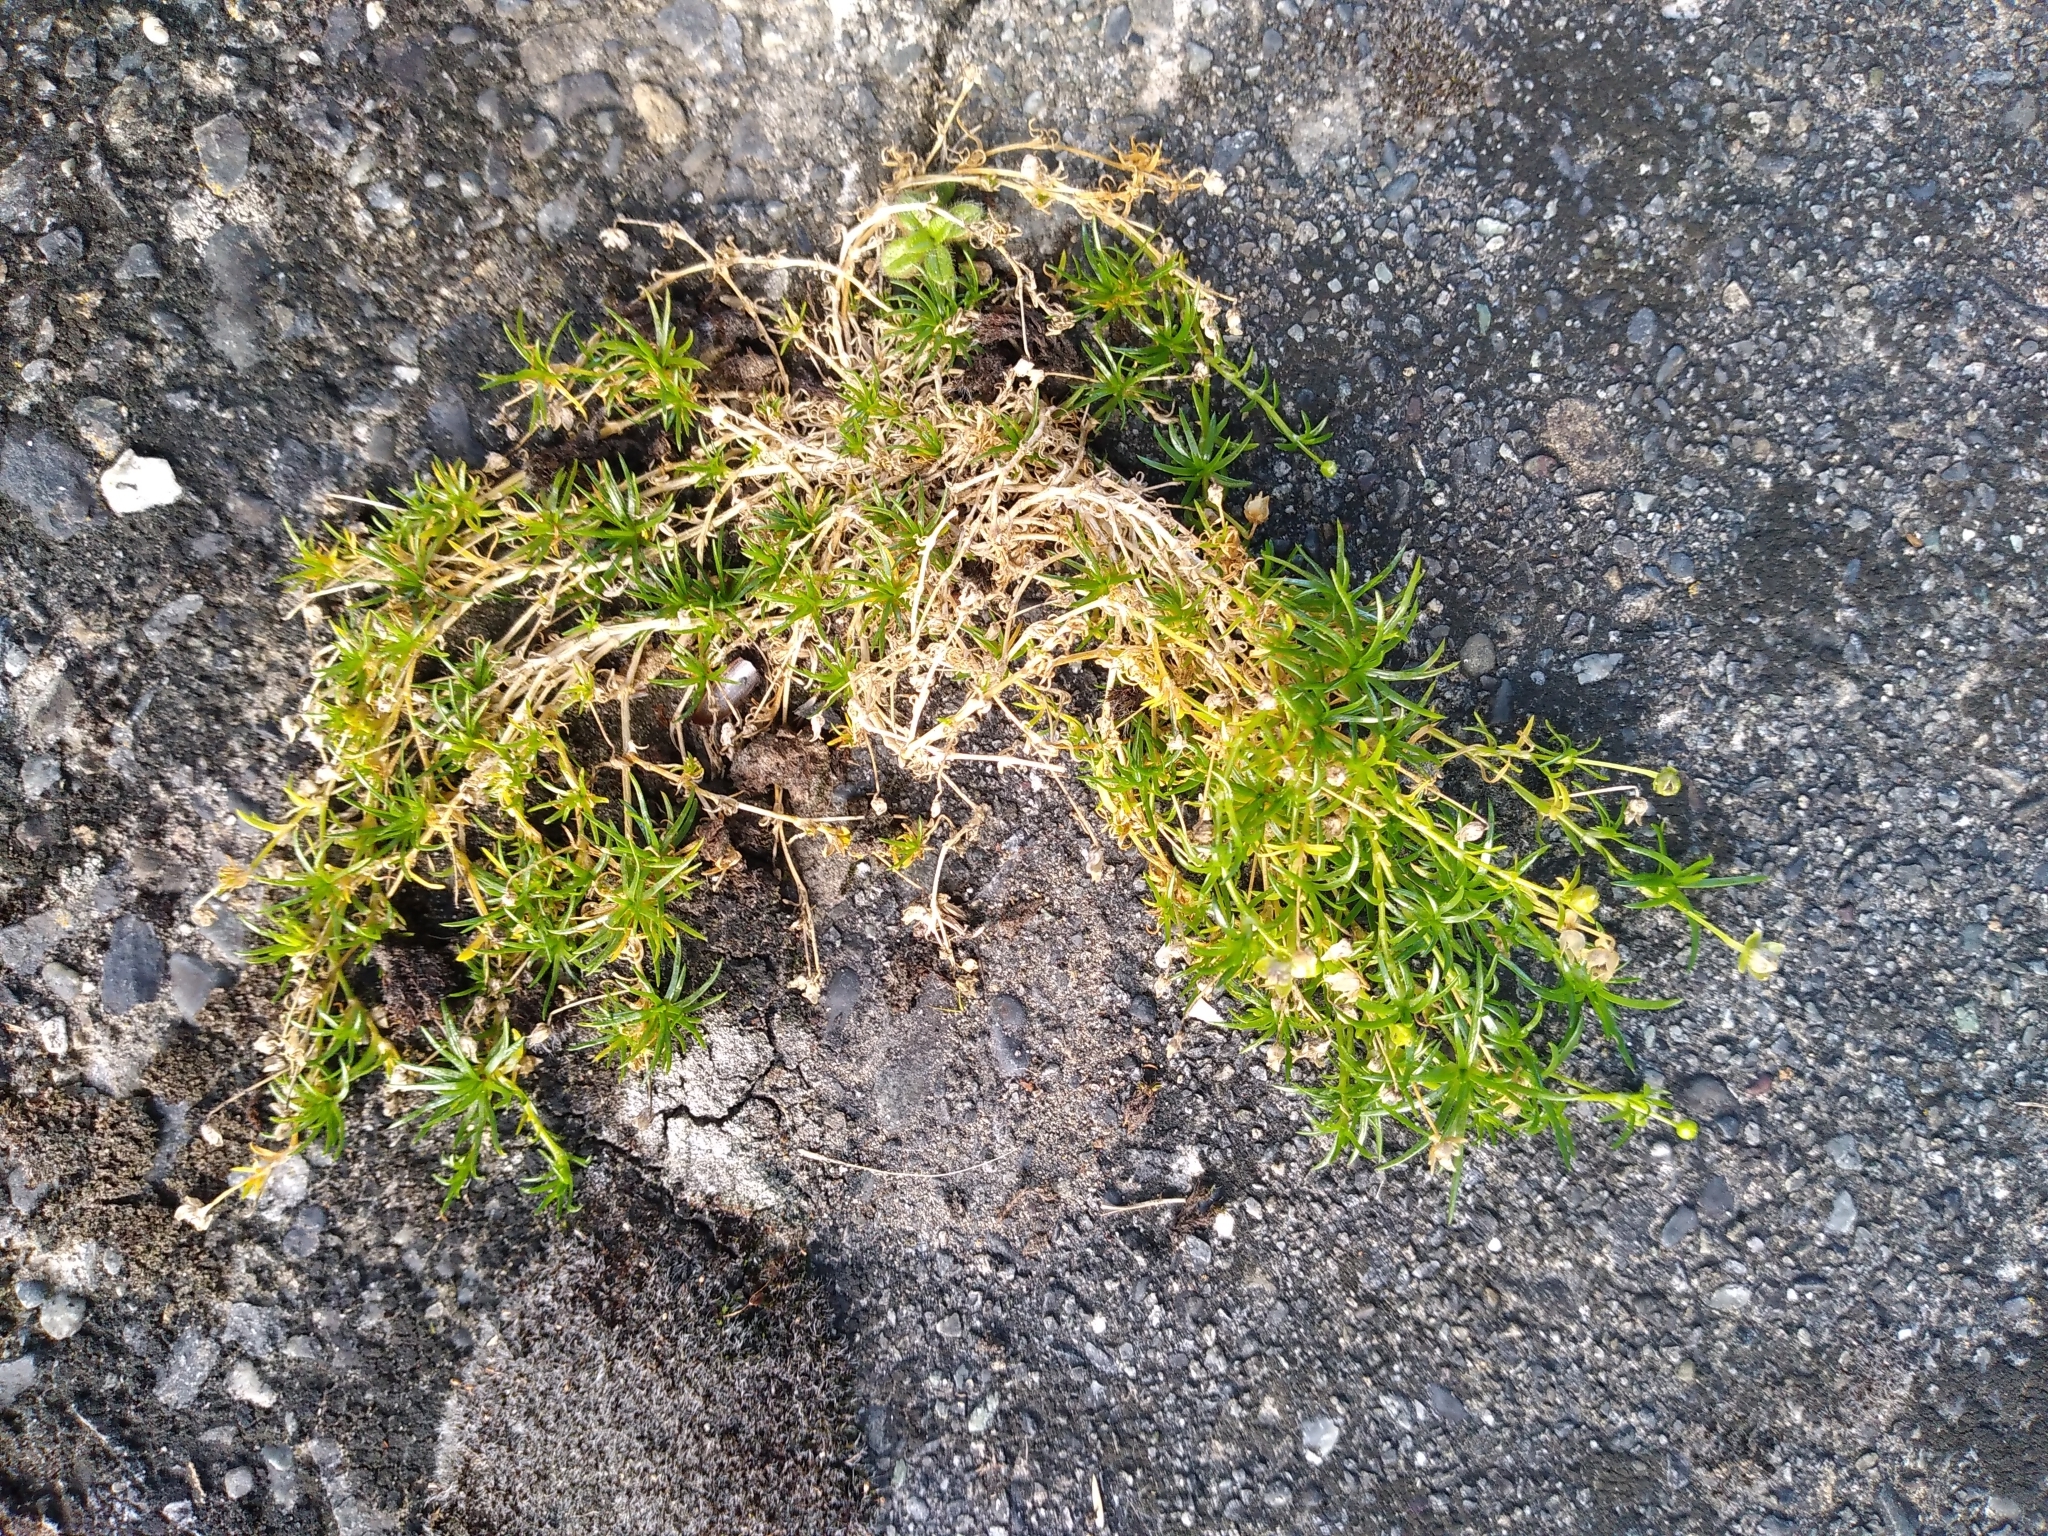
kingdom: Plantae
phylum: Tracheophyta
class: Magnoliopsida
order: Caryophyllales
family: Caryophyllaceae
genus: Sagina
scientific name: Sagina procumbens
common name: Procumbent pearlwort
